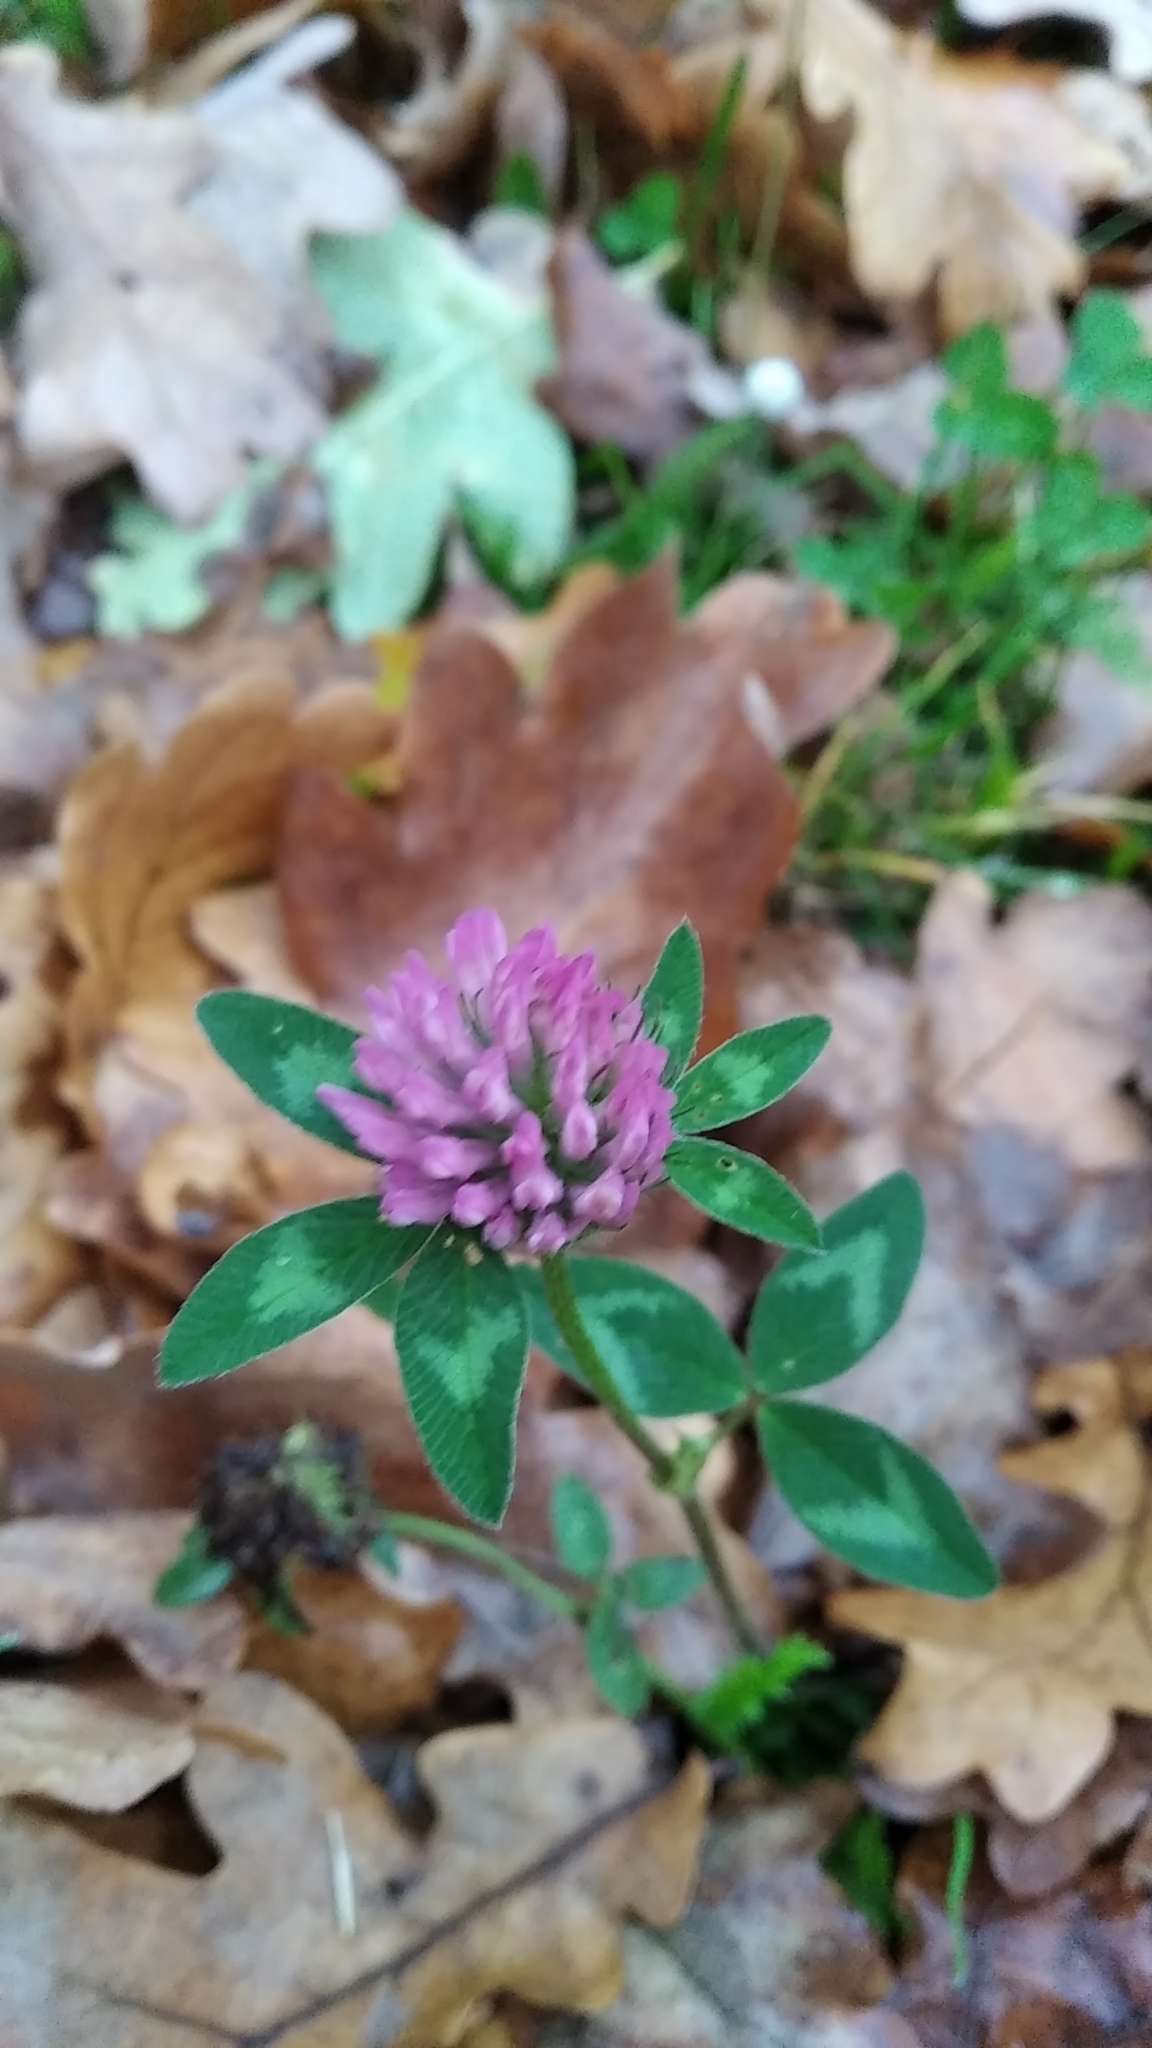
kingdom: Plantae
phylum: Tracheophyta
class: Magnoliopsida
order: Fabales
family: Fabaceae
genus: Trifolium
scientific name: Trifolium pratense
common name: Red clover
